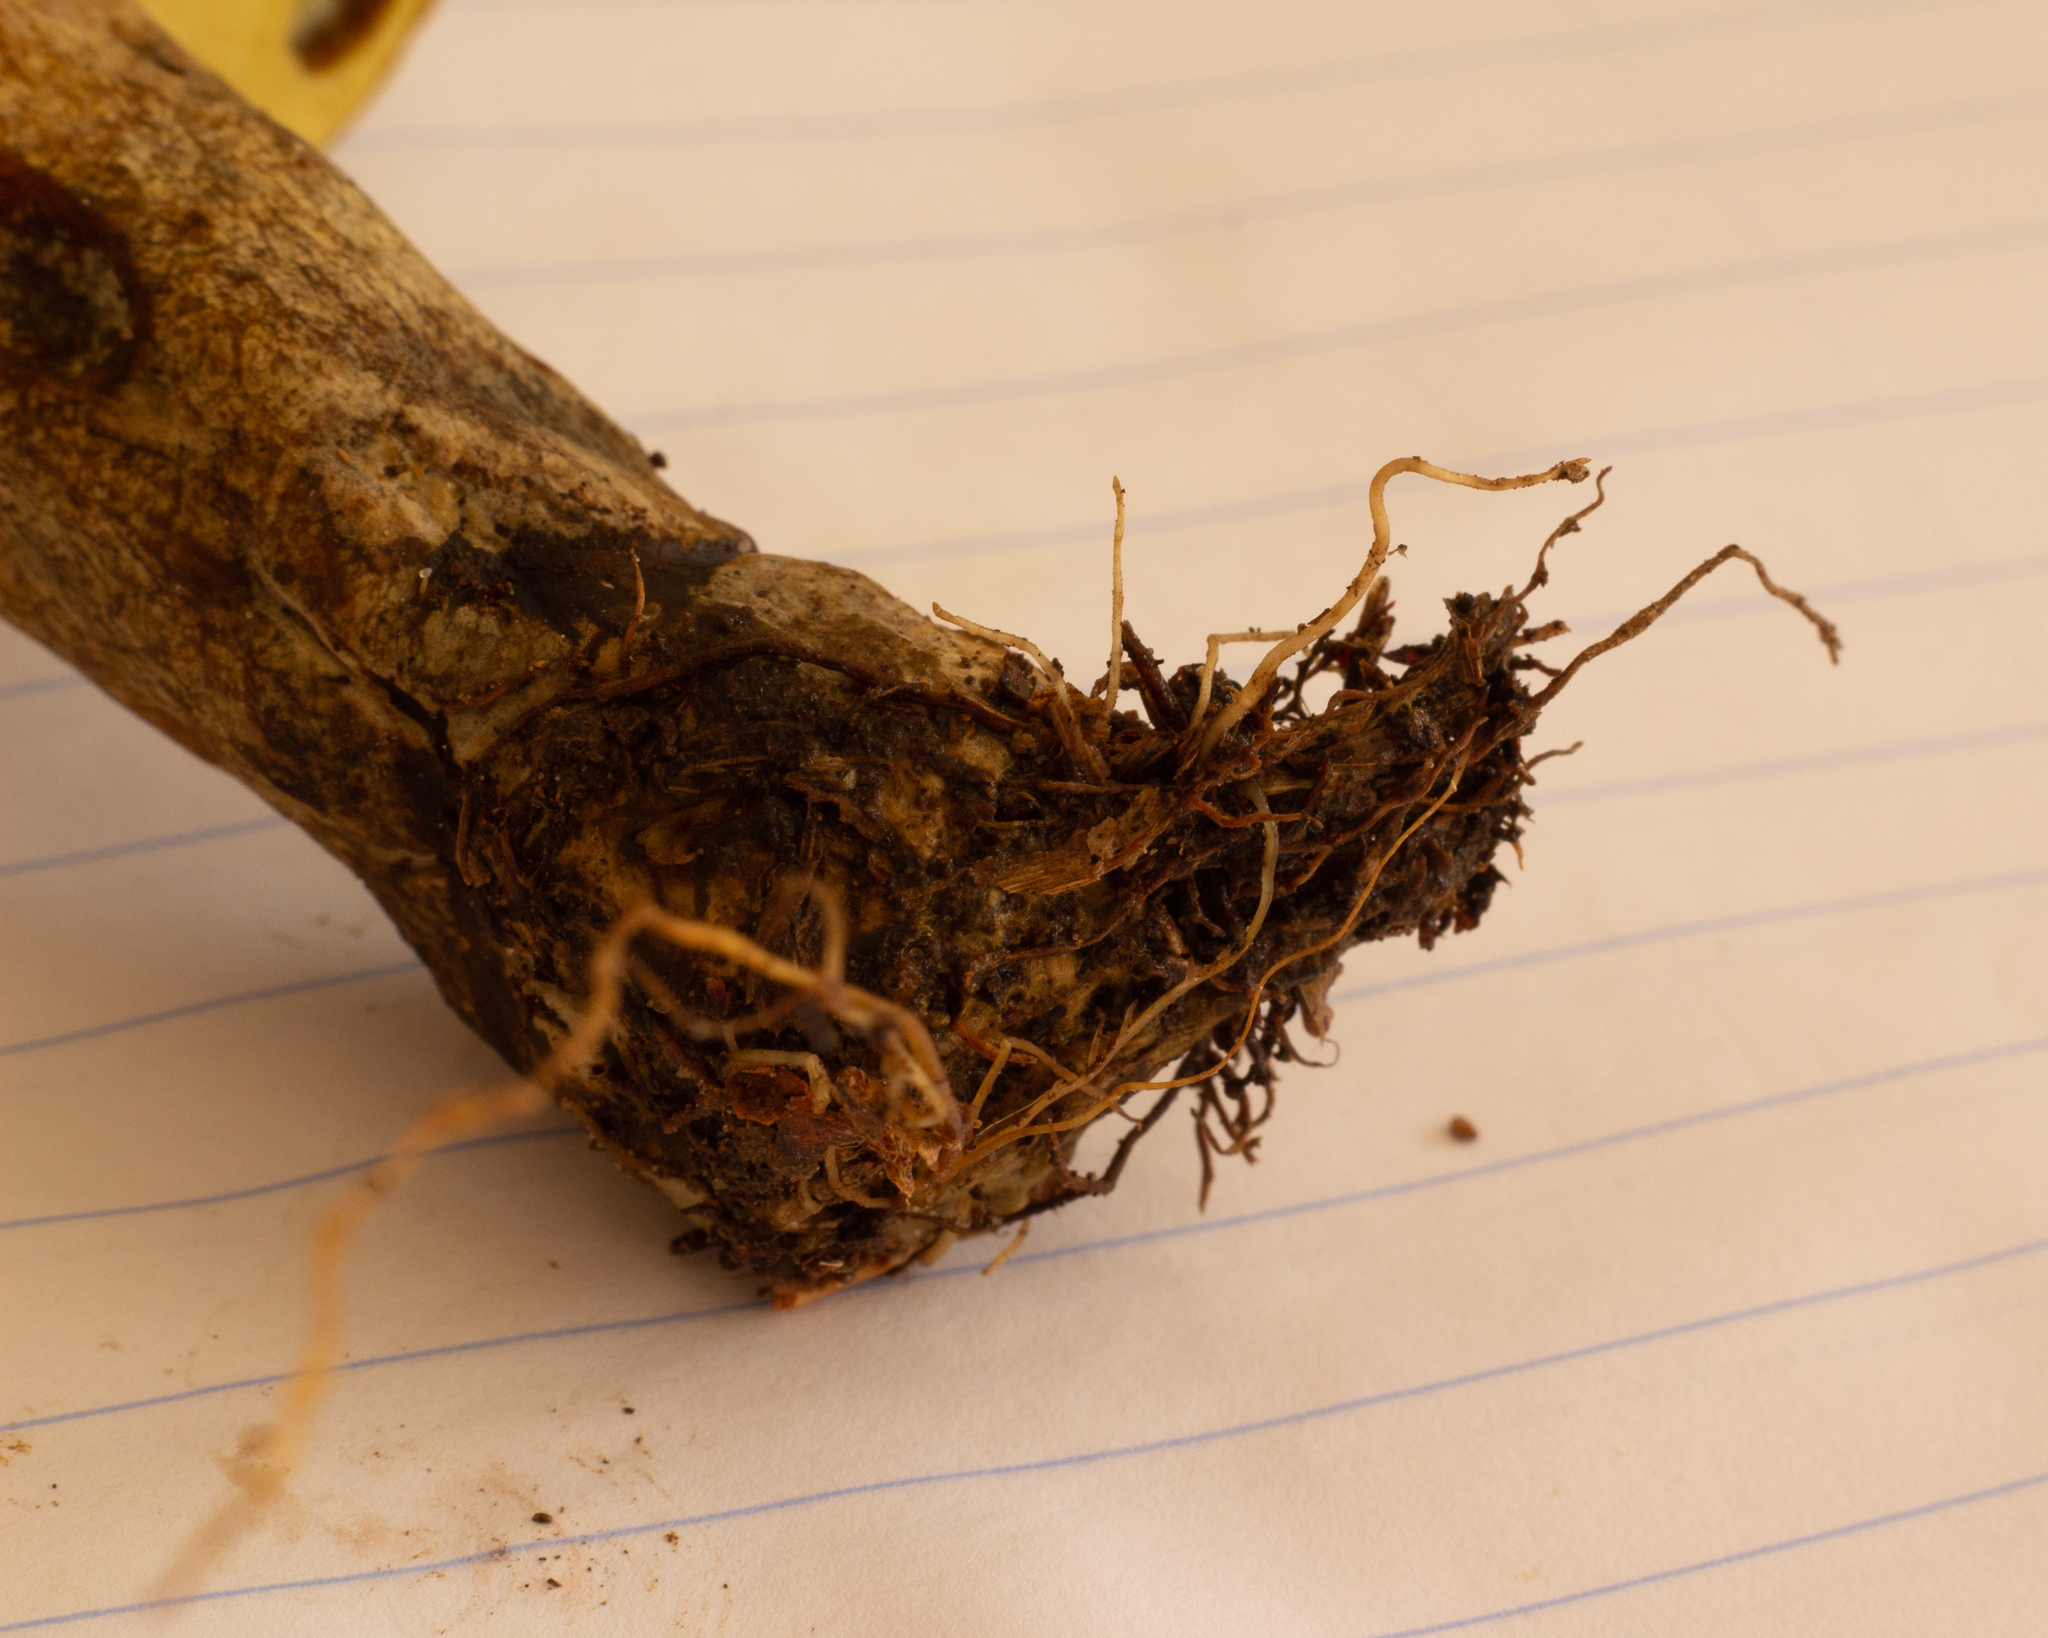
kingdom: Fungi
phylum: Basidiomycota
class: Agaricomycetes
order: Boletales
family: Boletinellaceae
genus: Phlebopus
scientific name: Phlebopus beniensis
